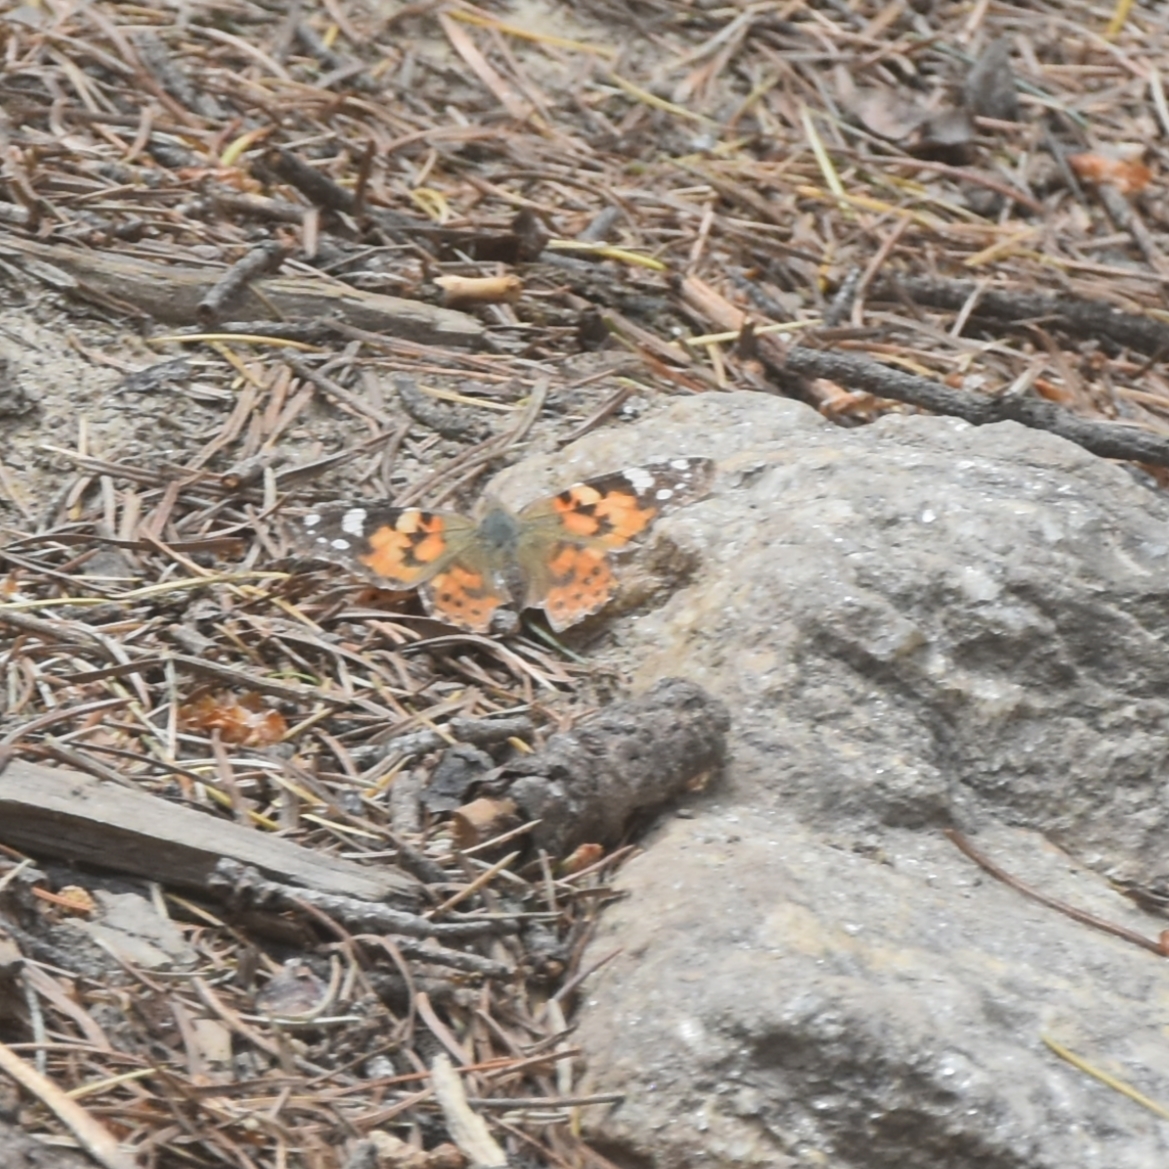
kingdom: Animalia
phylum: Arthropoda
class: Insecta
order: Lepidoptera
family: Nymphalidae
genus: Vanessa
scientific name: Vanessa cardui
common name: Painted lady
